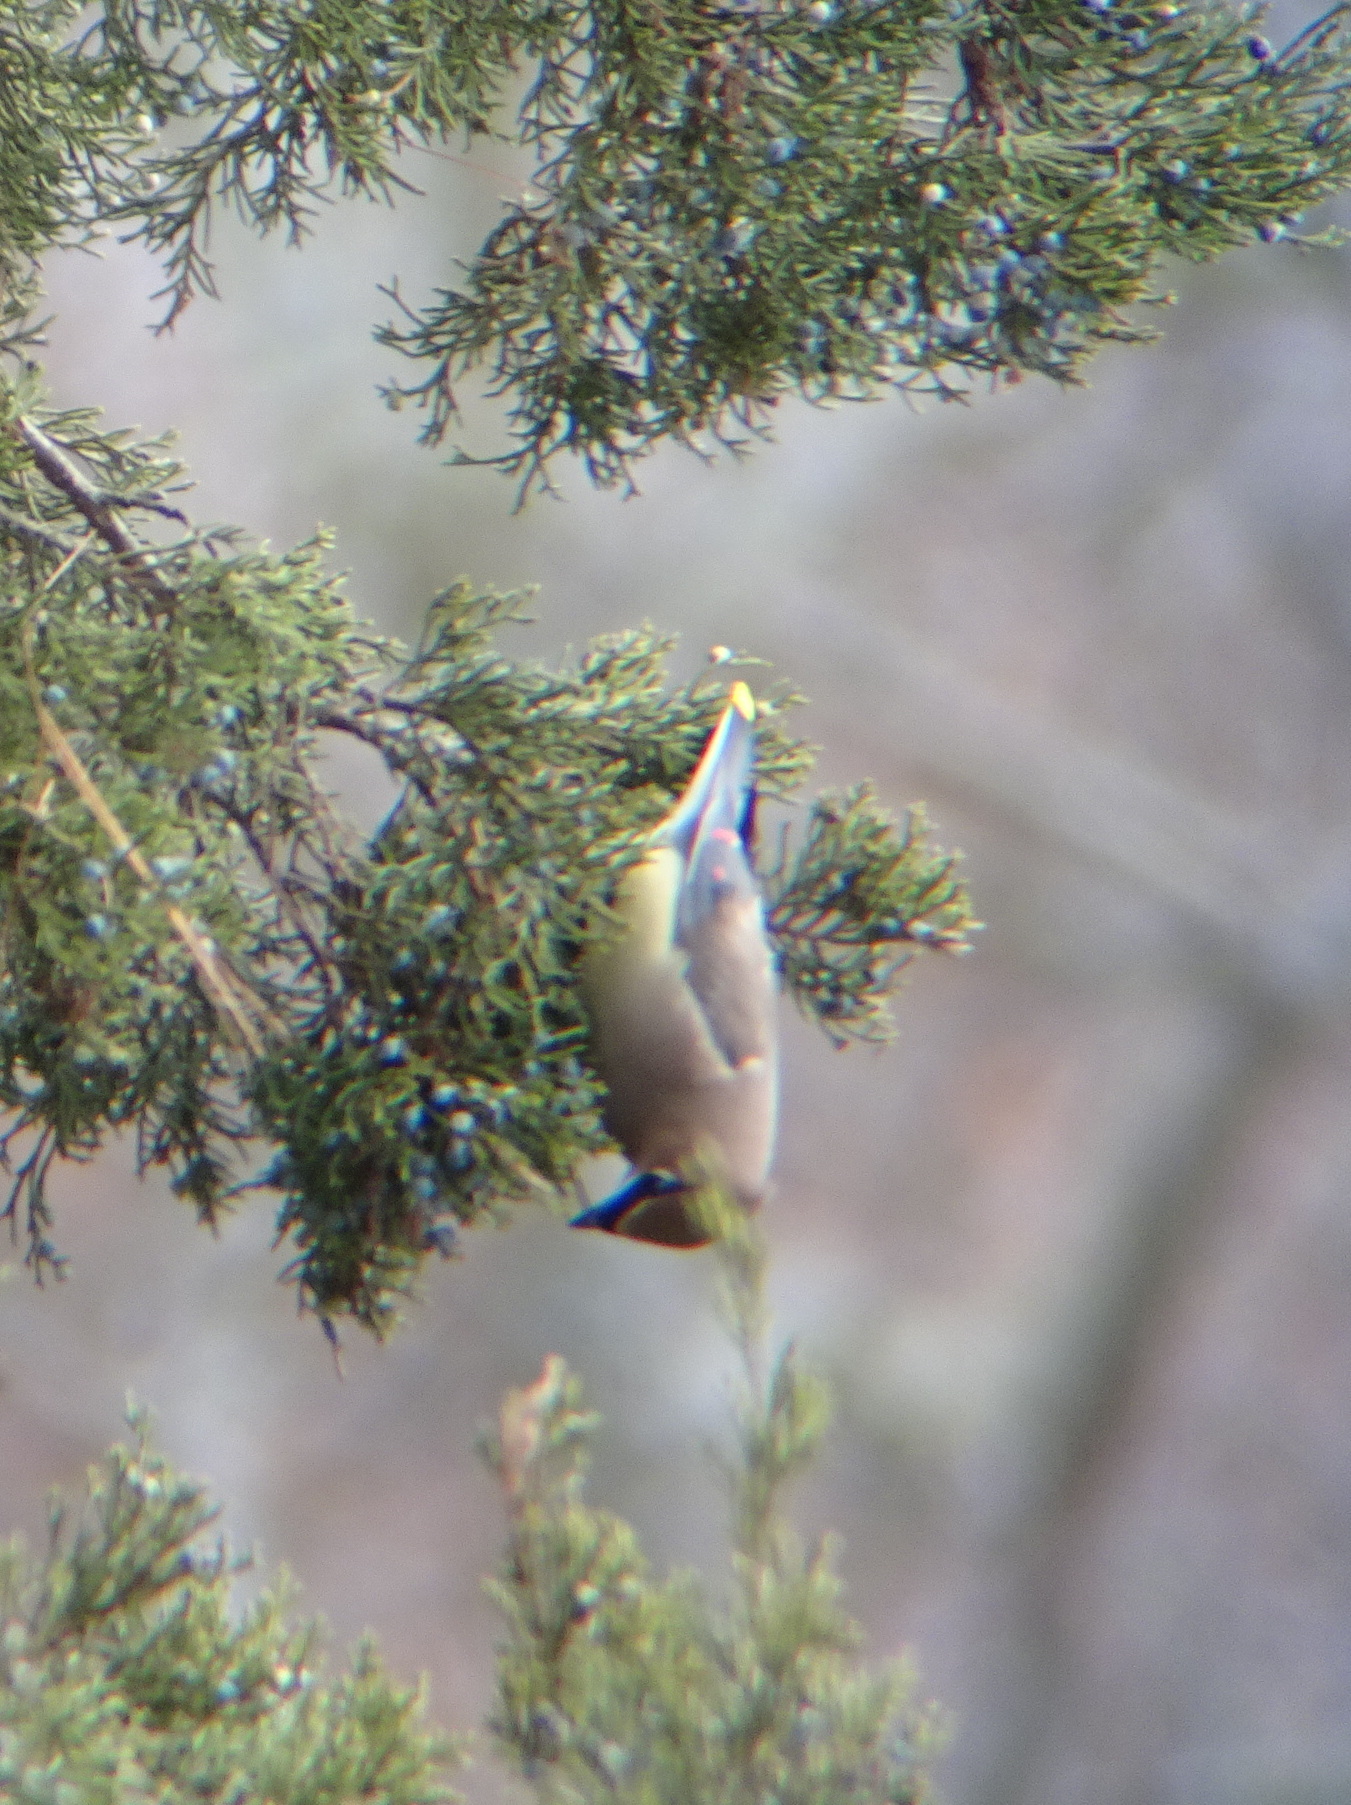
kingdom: Animalia
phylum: Chordata
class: Aves
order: Passeriformes
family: Bombycillidae
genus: Bombycilla
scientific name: Bombycilla cedrorum
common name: Cedar waxwing
